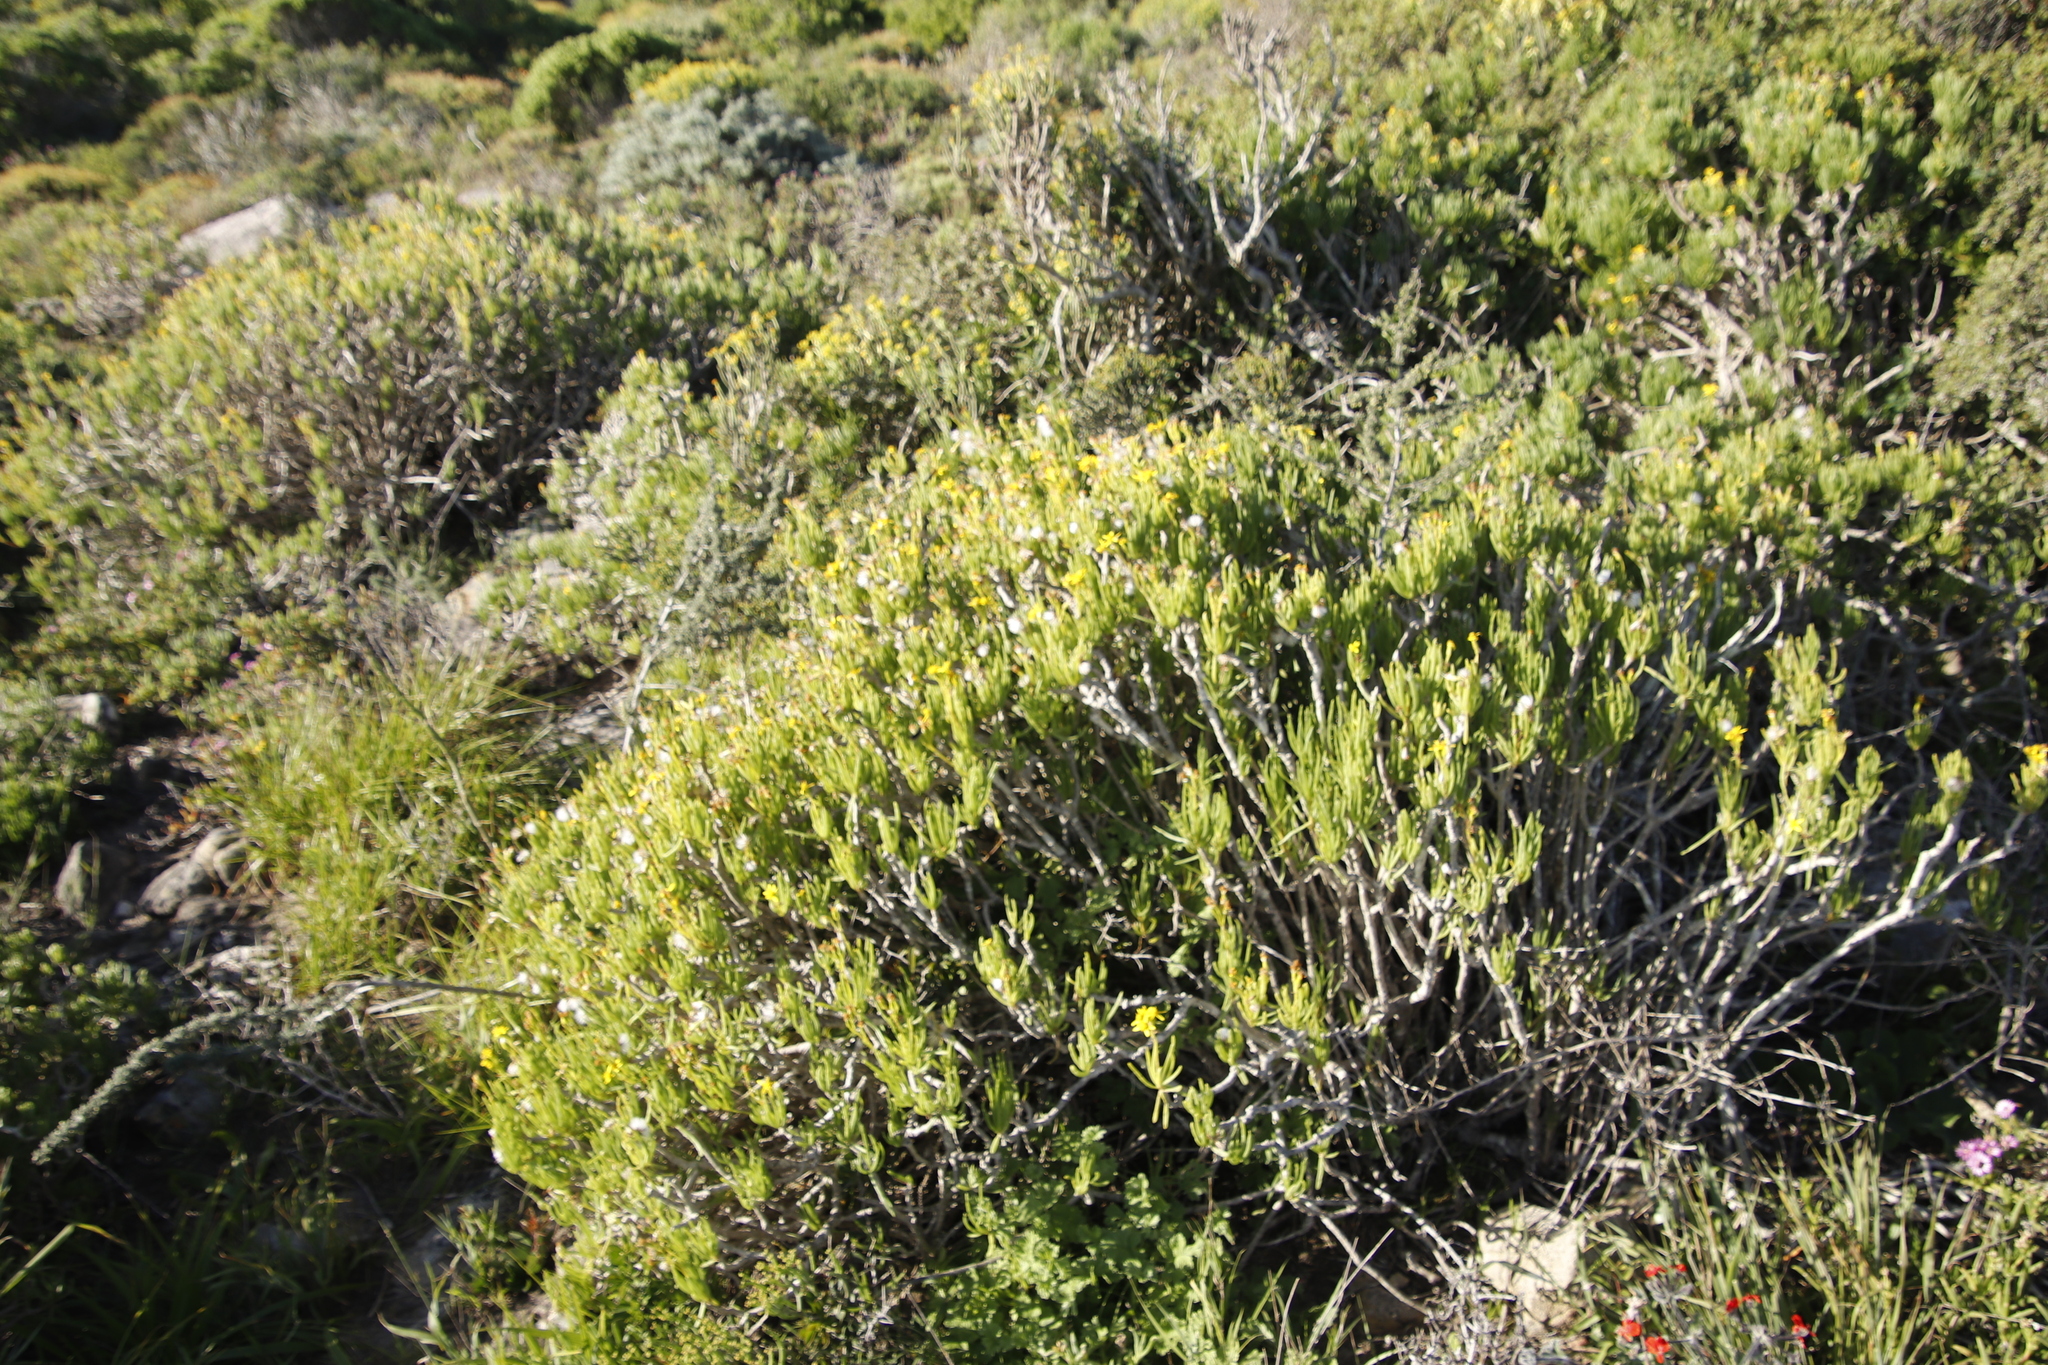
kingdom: Plantae
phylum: Tracheophyta
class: Magnoliopsida
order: Asterales
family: Asteraceae
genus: Curio
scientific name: Curio corymbifer
